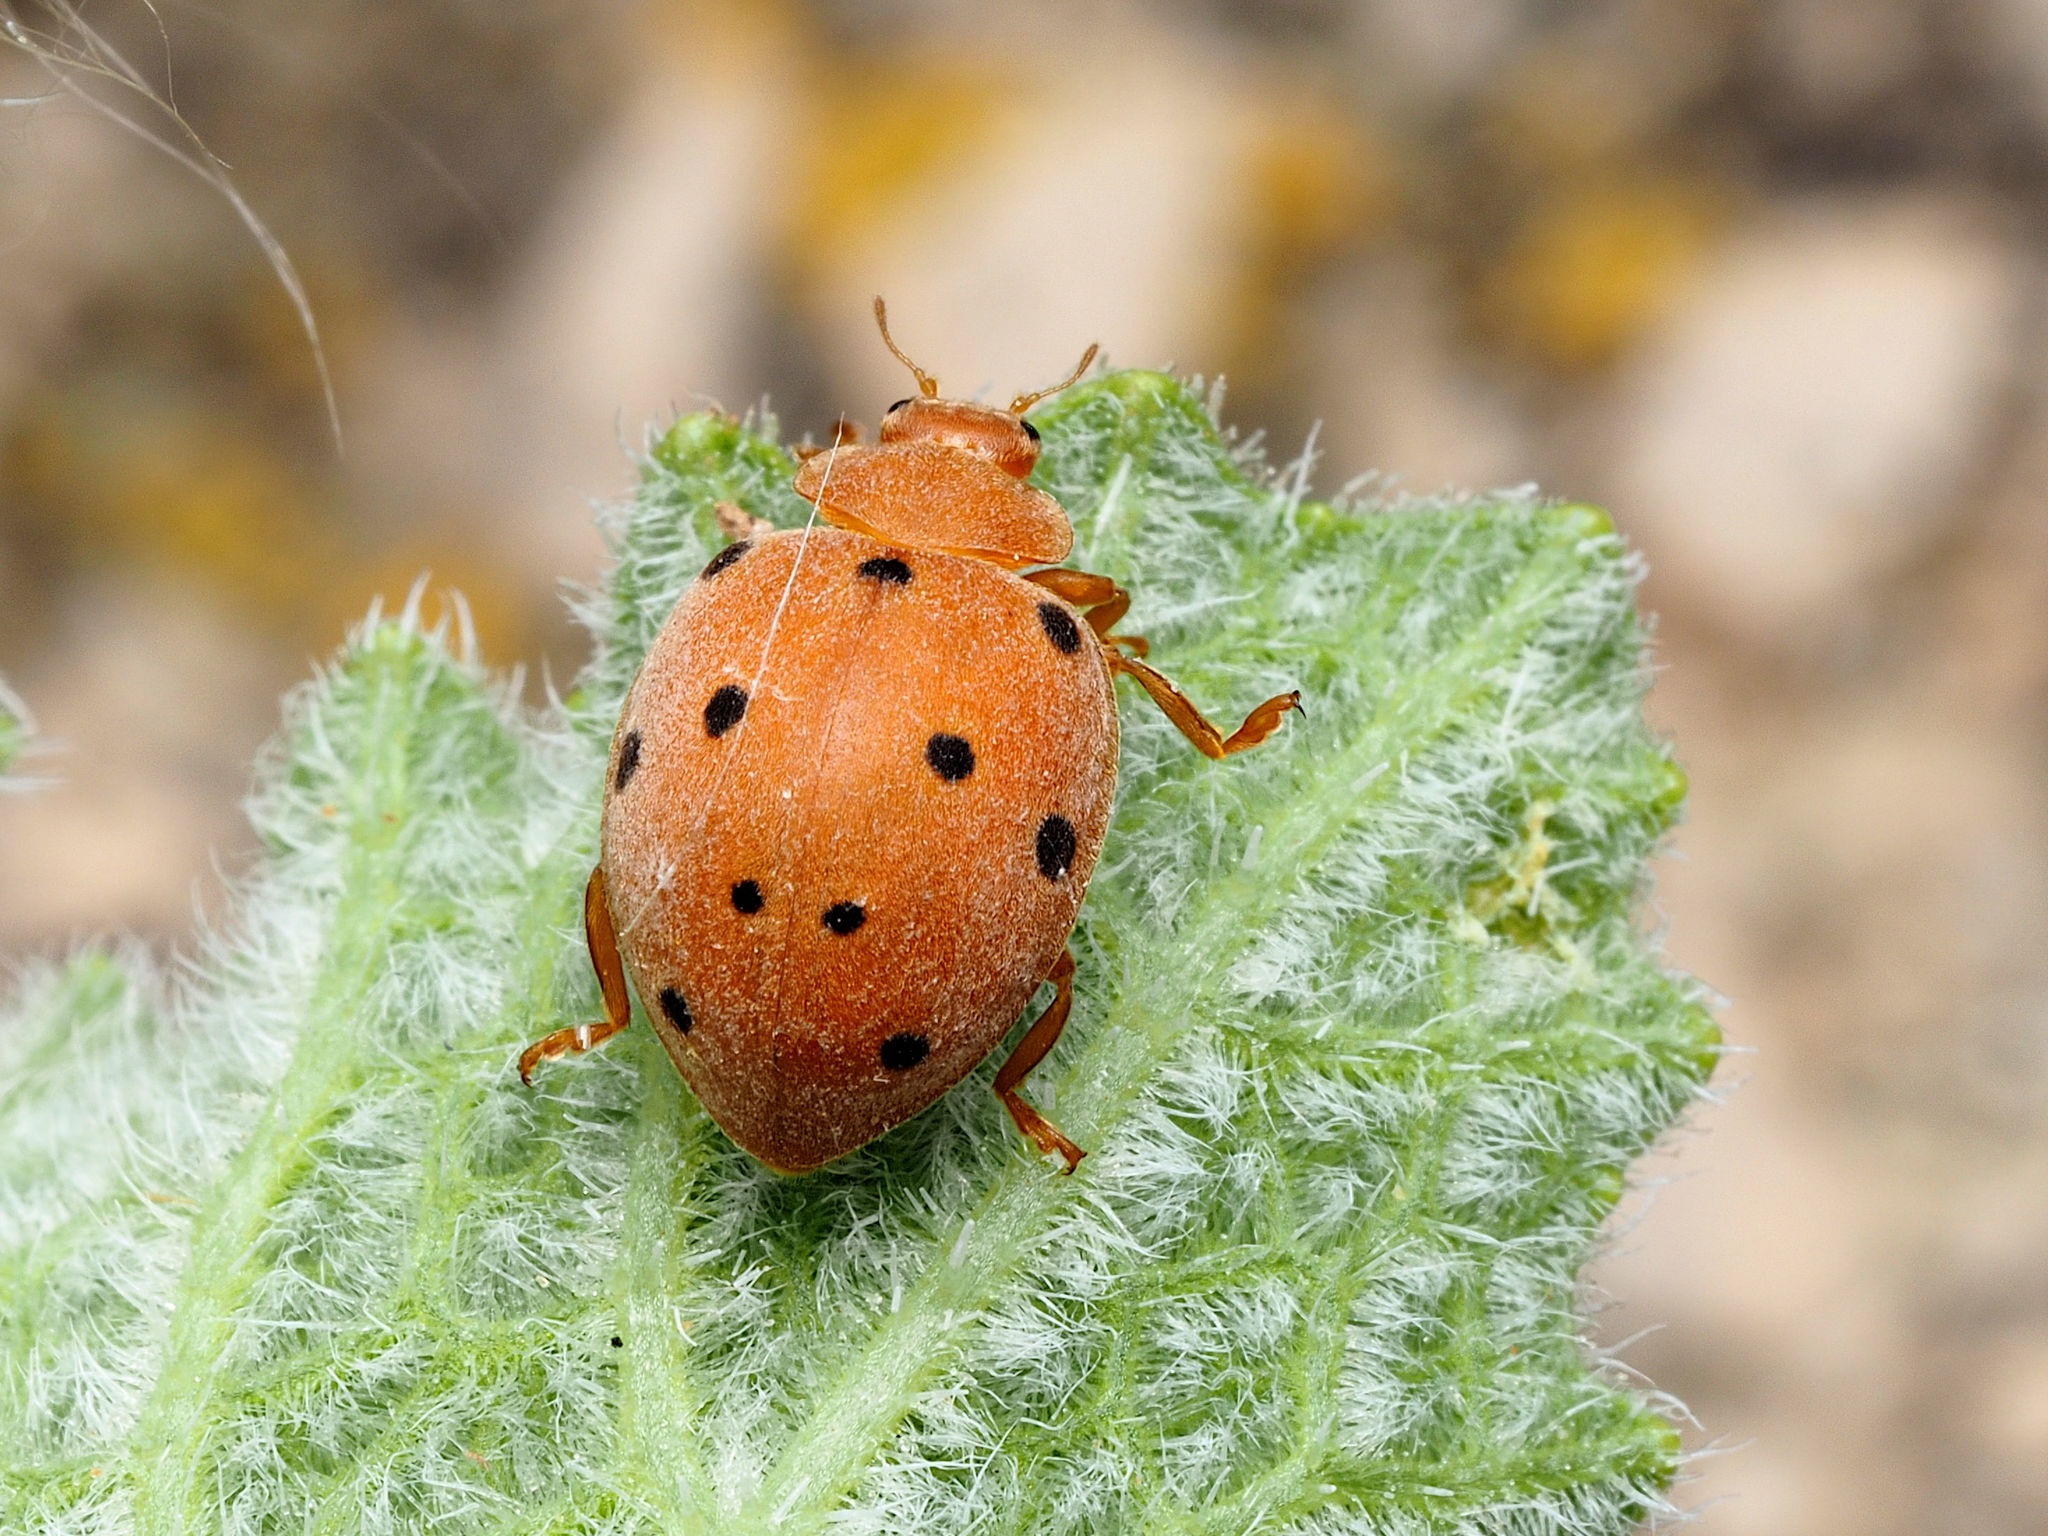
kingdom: Animalia
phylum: Arthropoda
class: Insecta
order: Coleoptera
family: Coccinellidae
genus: Henosepilachna
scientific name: Henosepilachna
